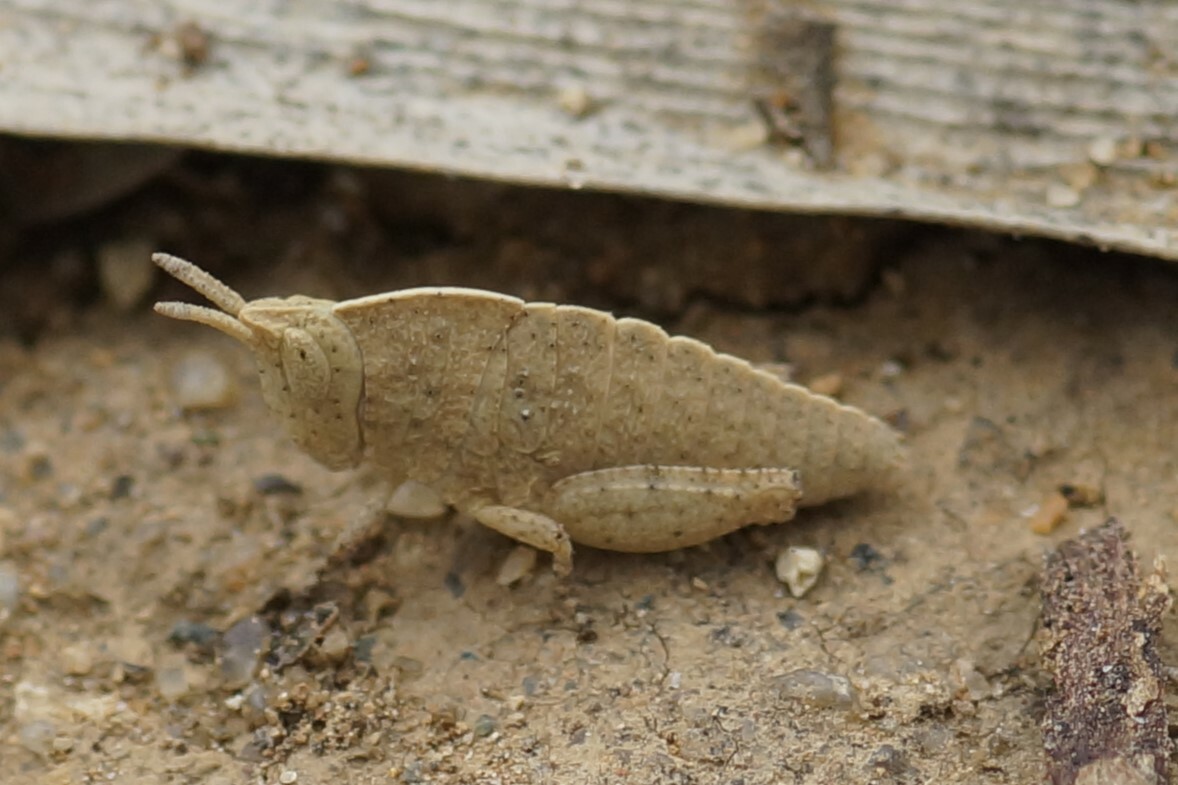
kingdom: Animalia
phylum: Arthropoda
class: Insecta
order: Orthoptera
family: Acrididae
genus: Goniaea
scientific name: Goniaea australasiae
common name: Gumleaf grasshopper
